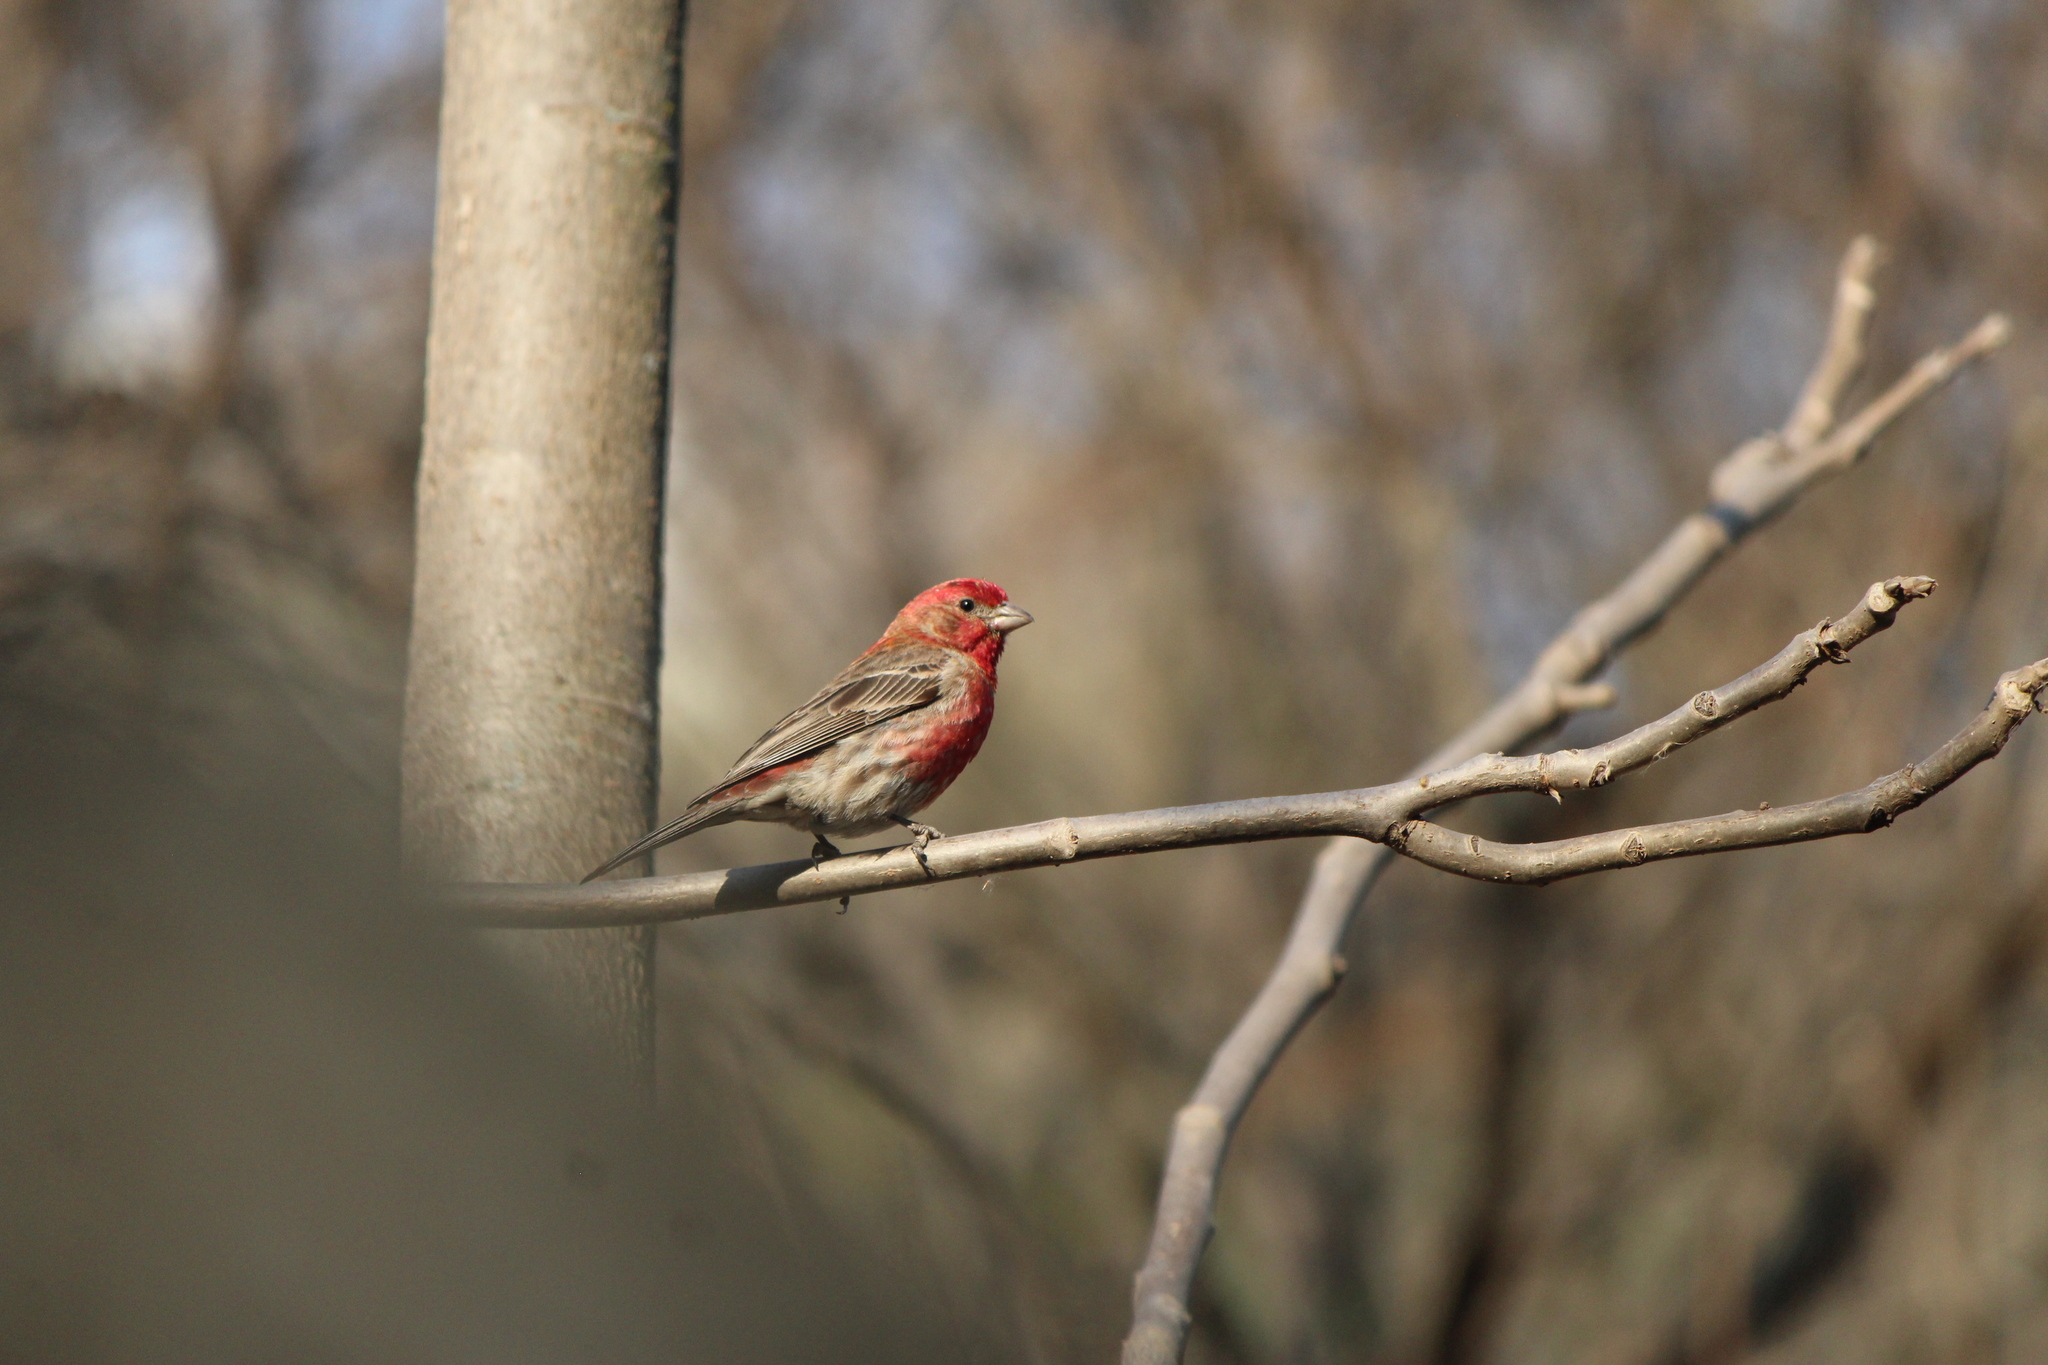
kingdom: Animalia
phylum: Chordata
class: Aves
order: Passeriformes
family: Fringillidae
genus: Haemorhous
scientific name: Haemorhous mexicanus
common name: House finch
